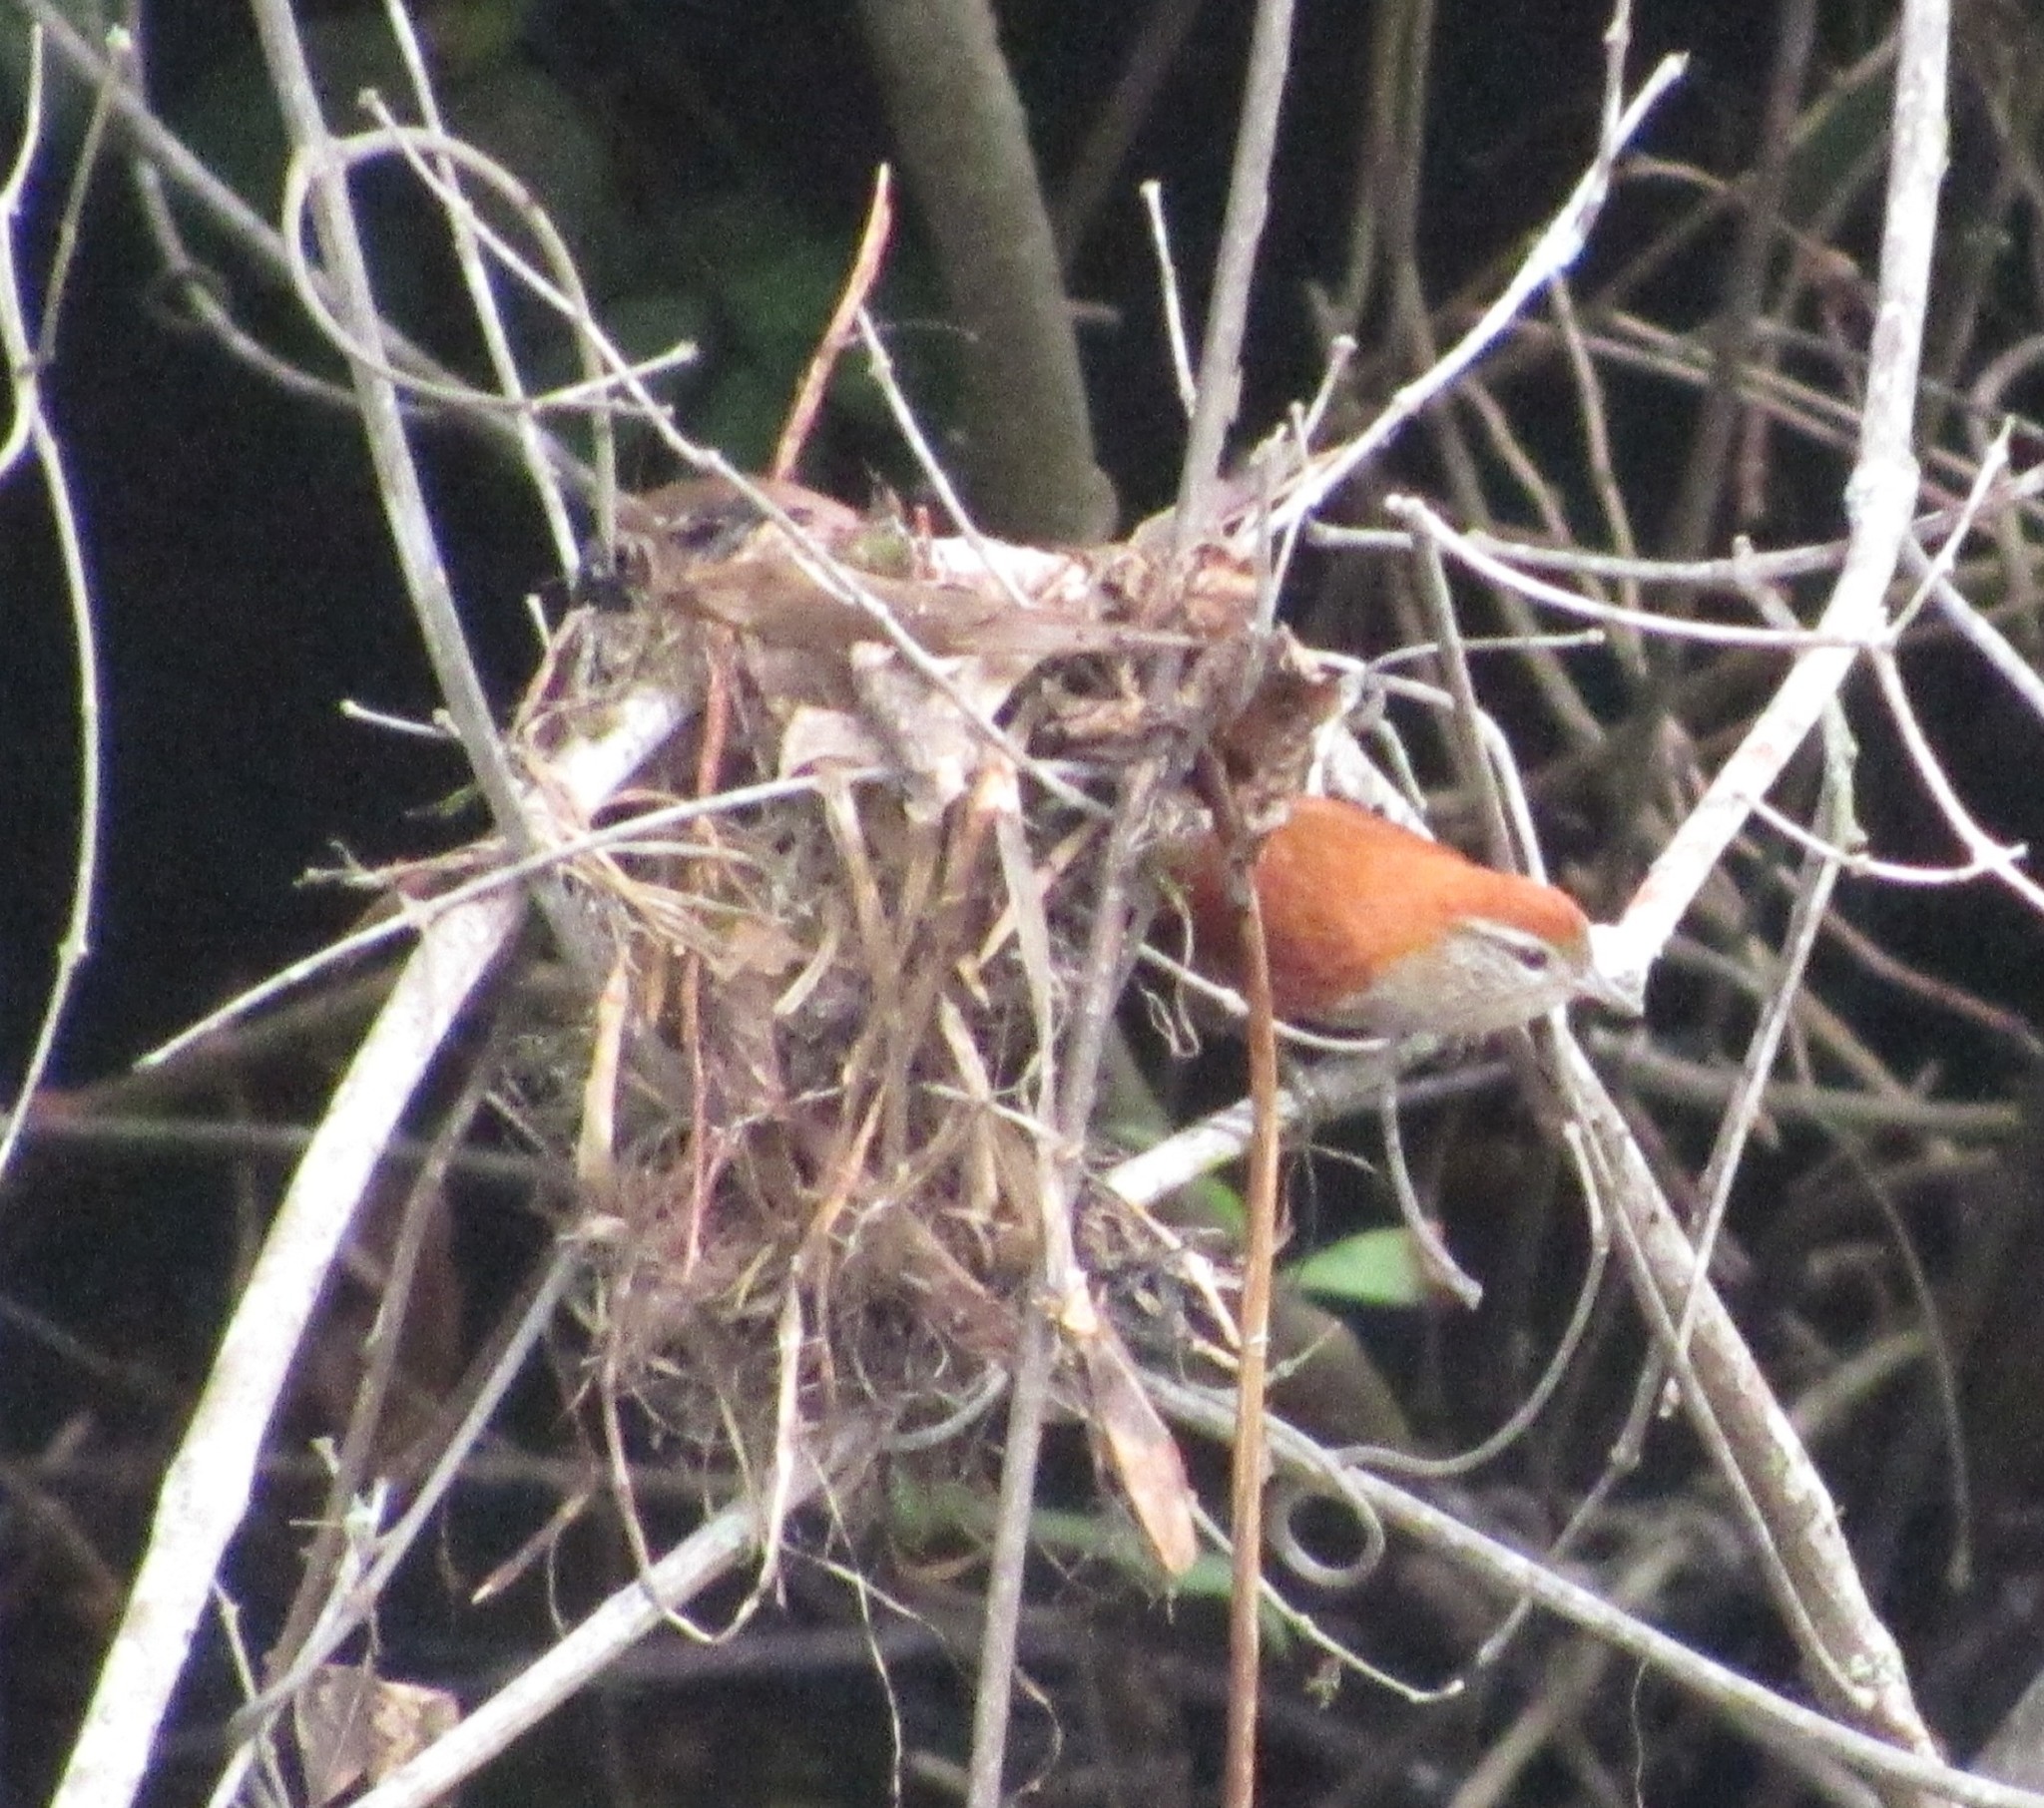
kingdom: Animalia
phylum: Chordata
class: Aves
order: Passeriformes
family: Furnariidae
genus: Cranioleuca
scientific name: Cranioleuca vulpina
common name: Rusty-backed spinetail
